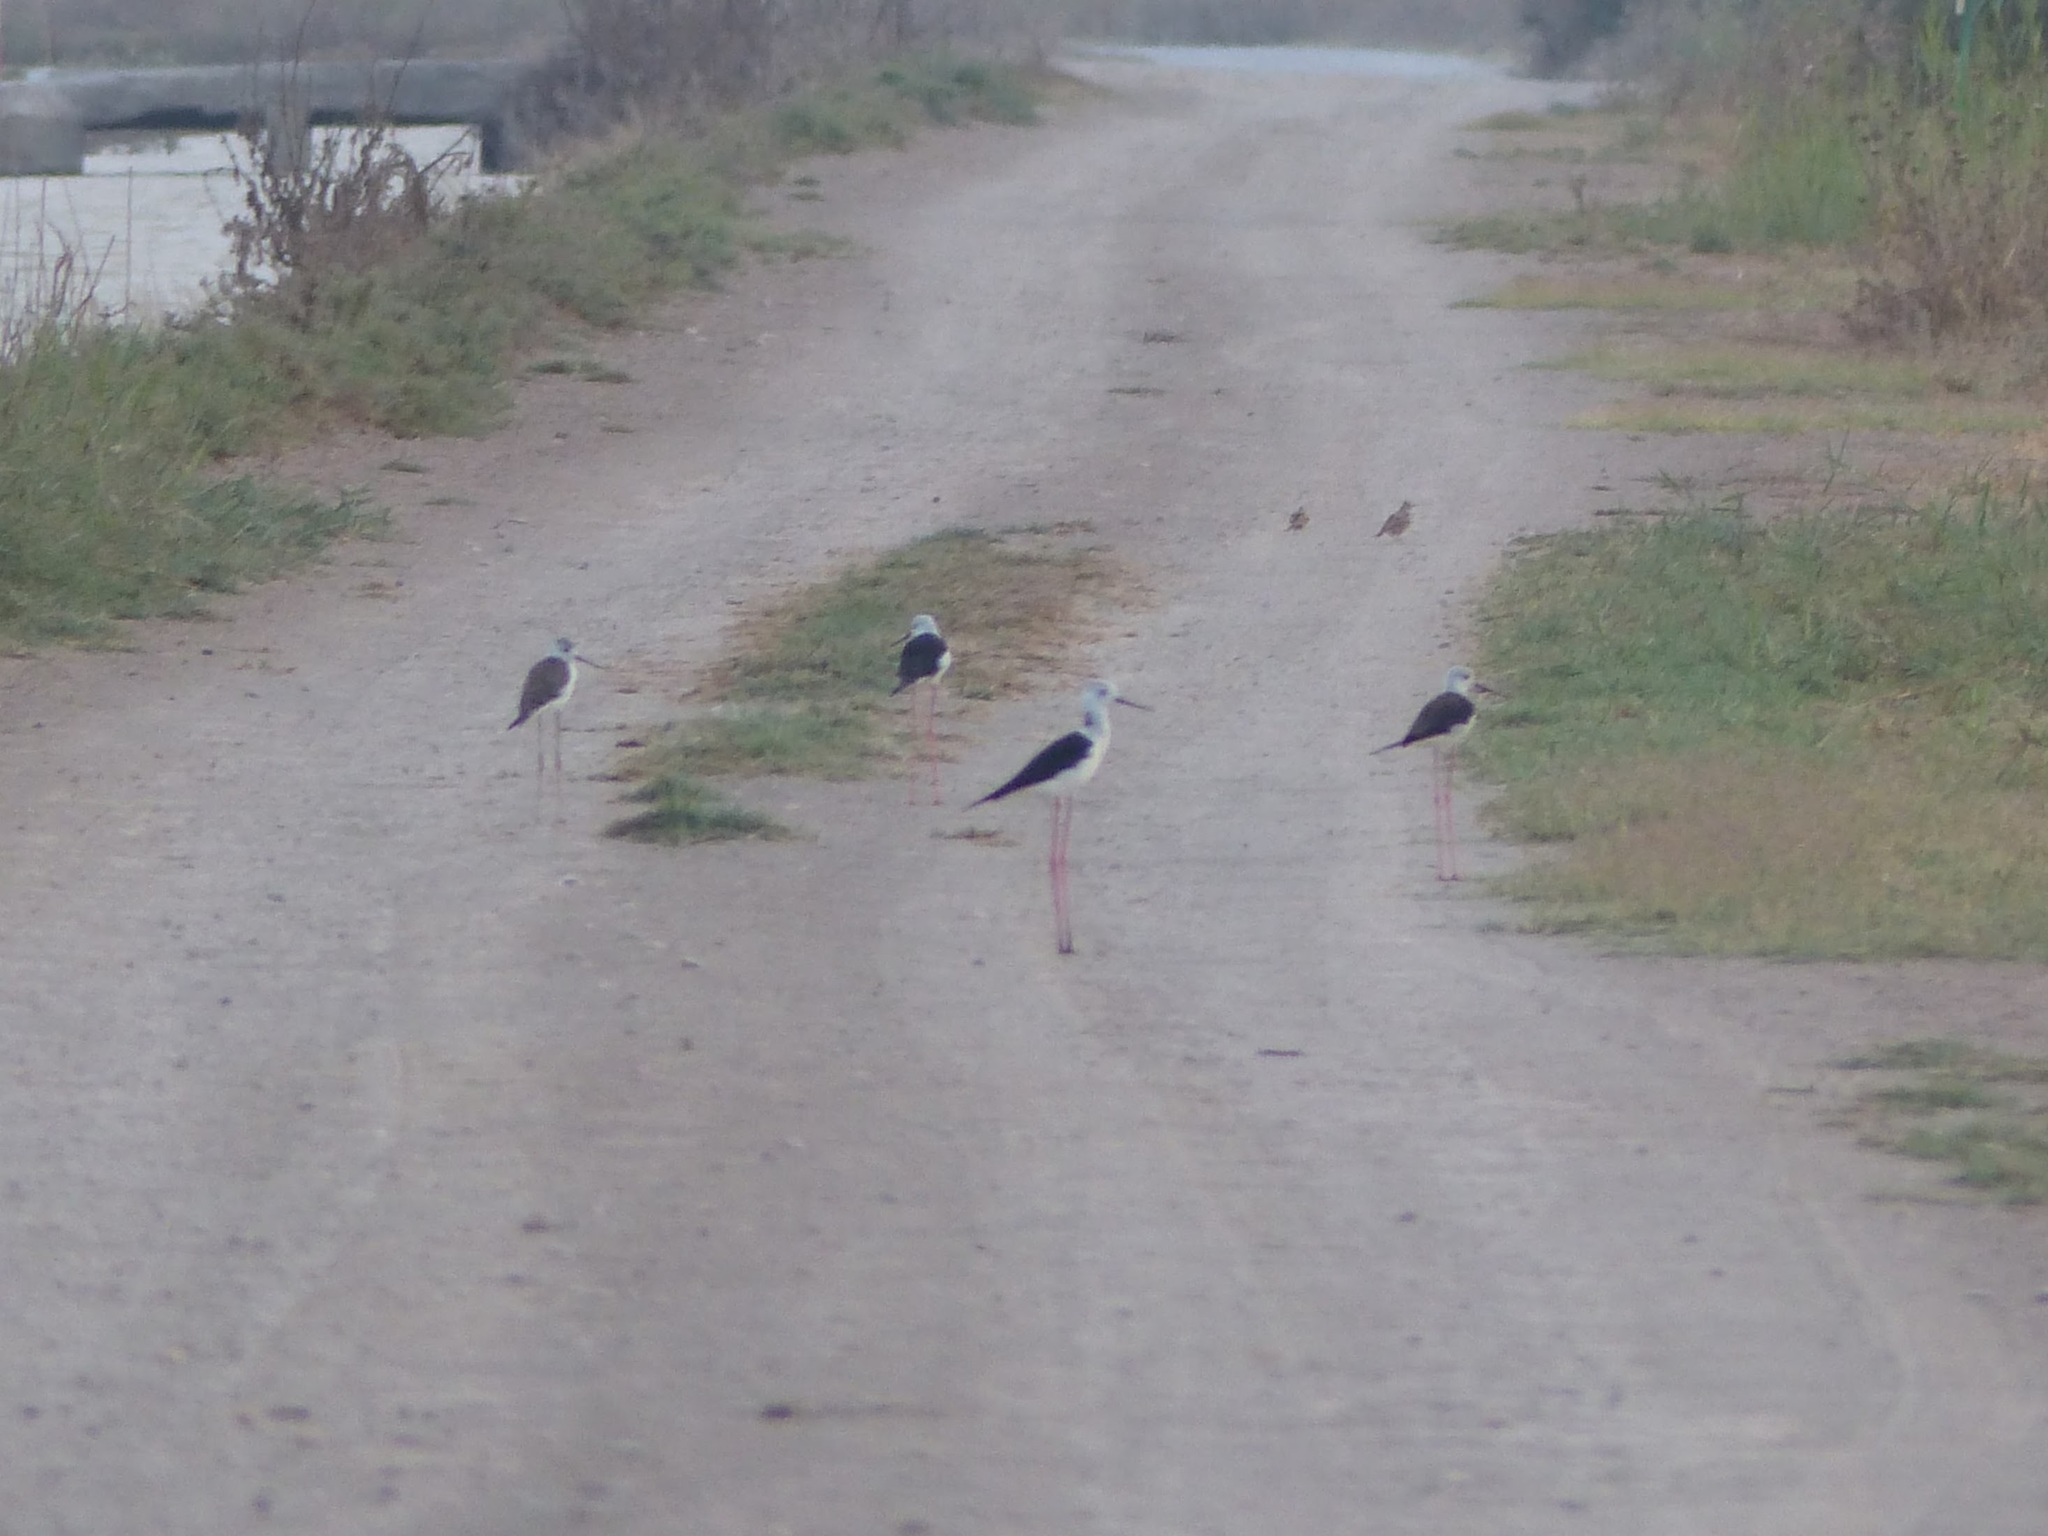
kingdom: Animalia
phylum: Chordata
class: Aves
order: Charadriiformes
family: Recurvirostridae
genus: Himantopus
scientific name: Himantopus himantopus
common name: Black-winged stilt
